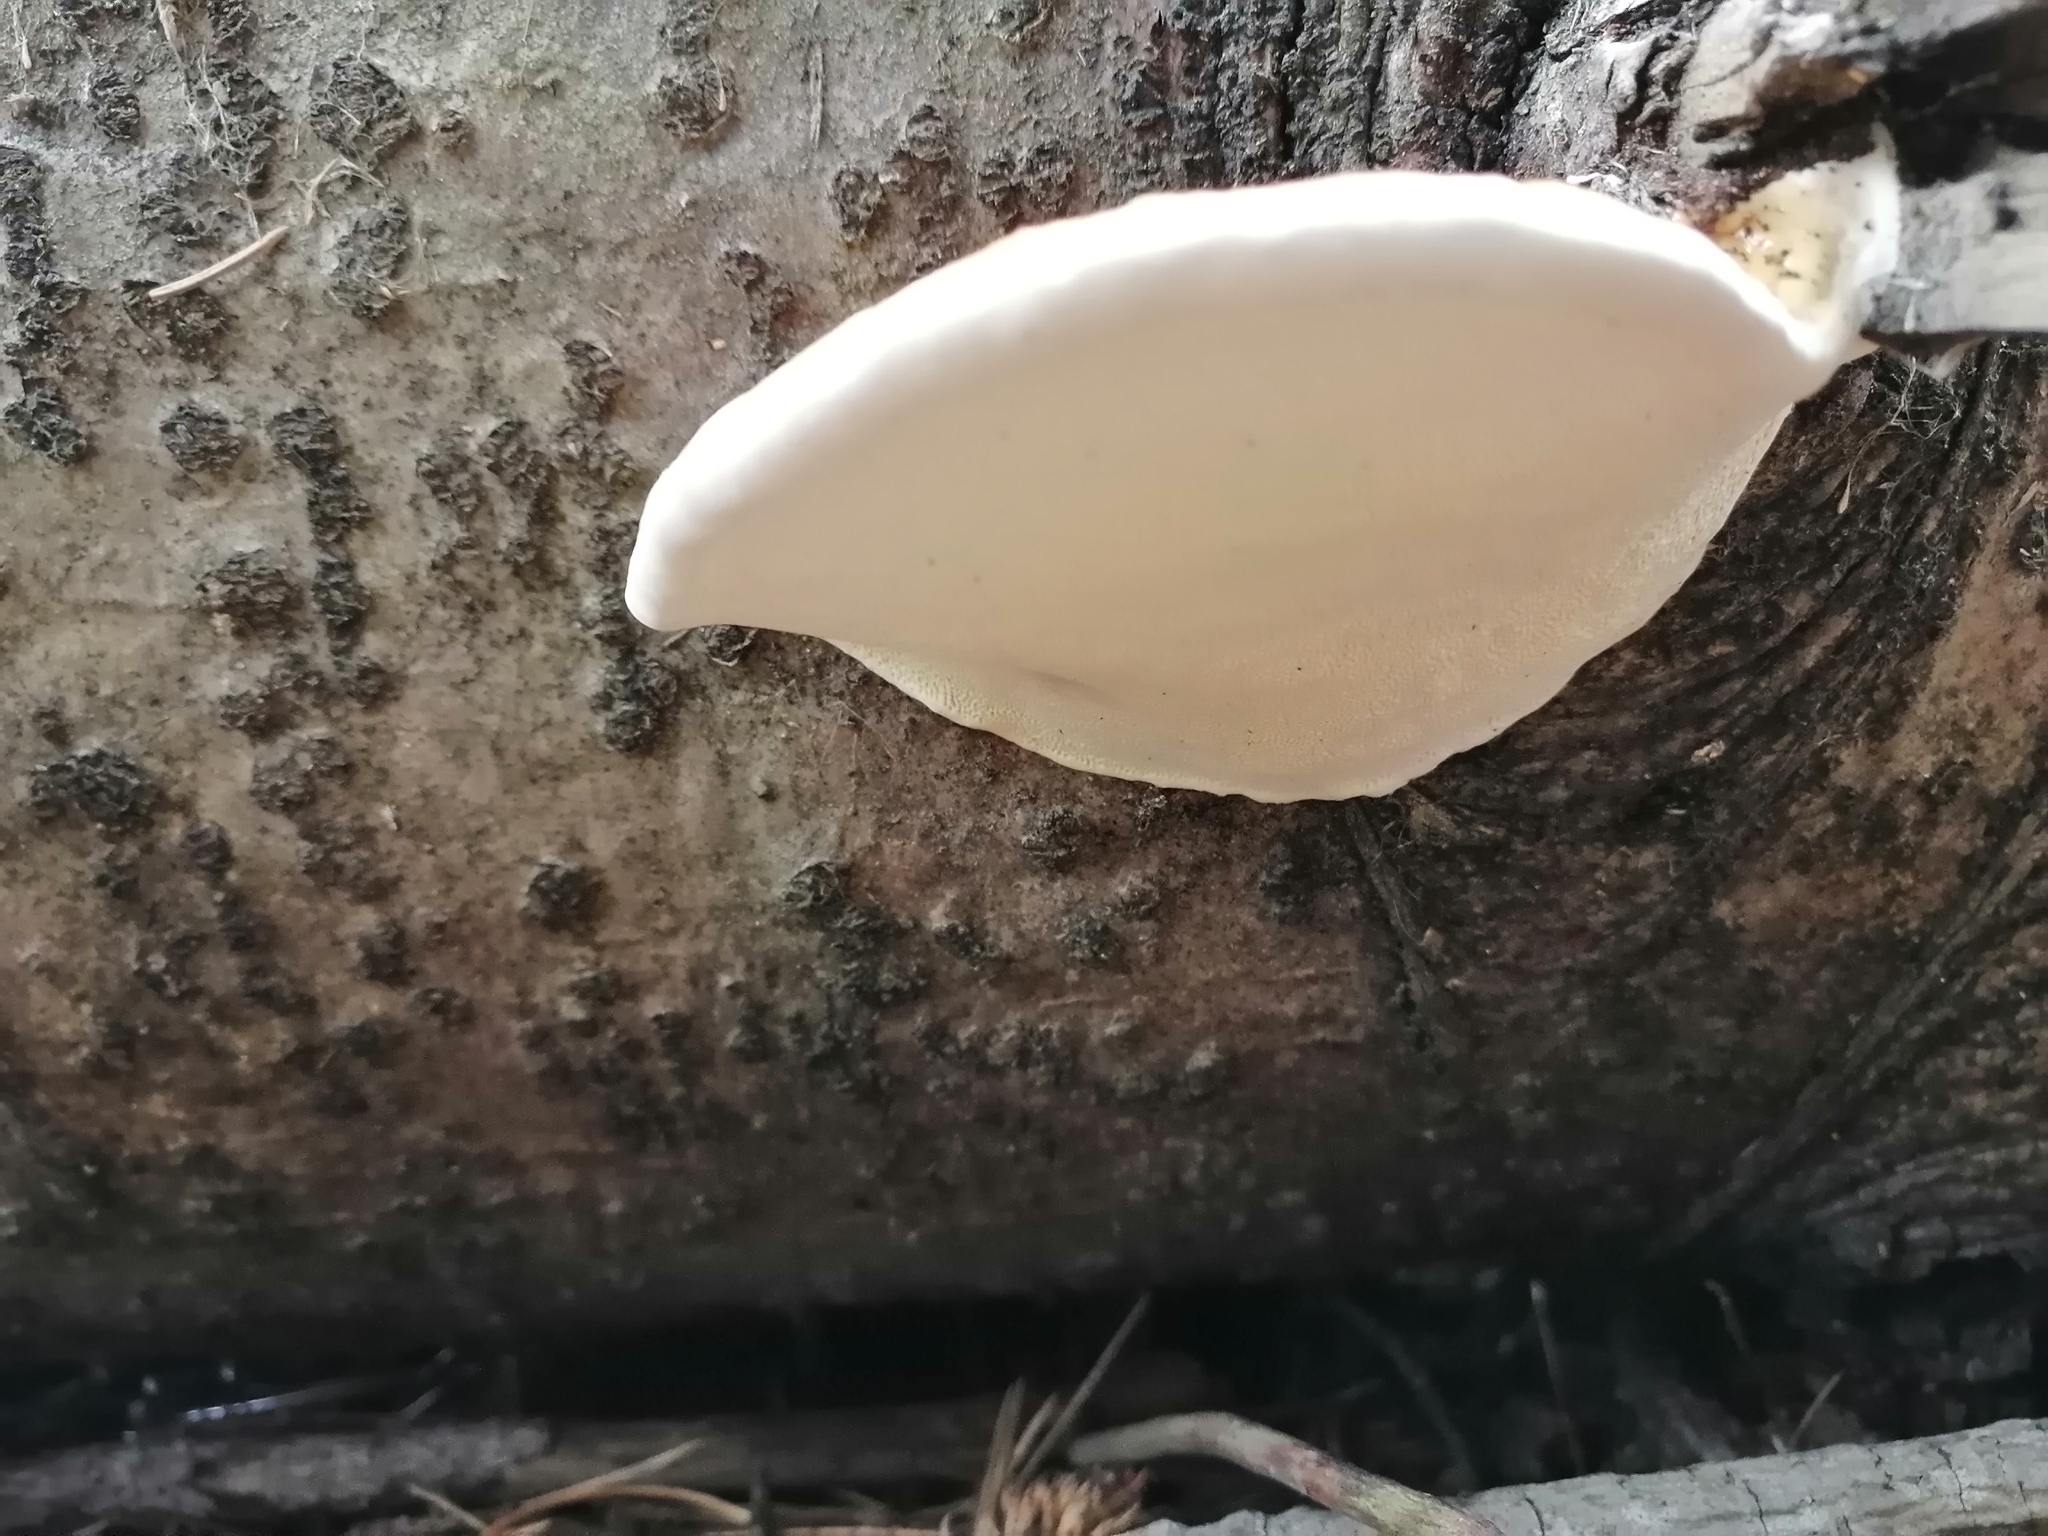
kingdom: Fungi
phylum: Basidiomycota
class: Agaricomycetes
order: Polyporales
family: Fomitopsidaceae
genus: Fomitopsis
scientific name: Fomitopsis pinicola
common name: Red-belted bracket
